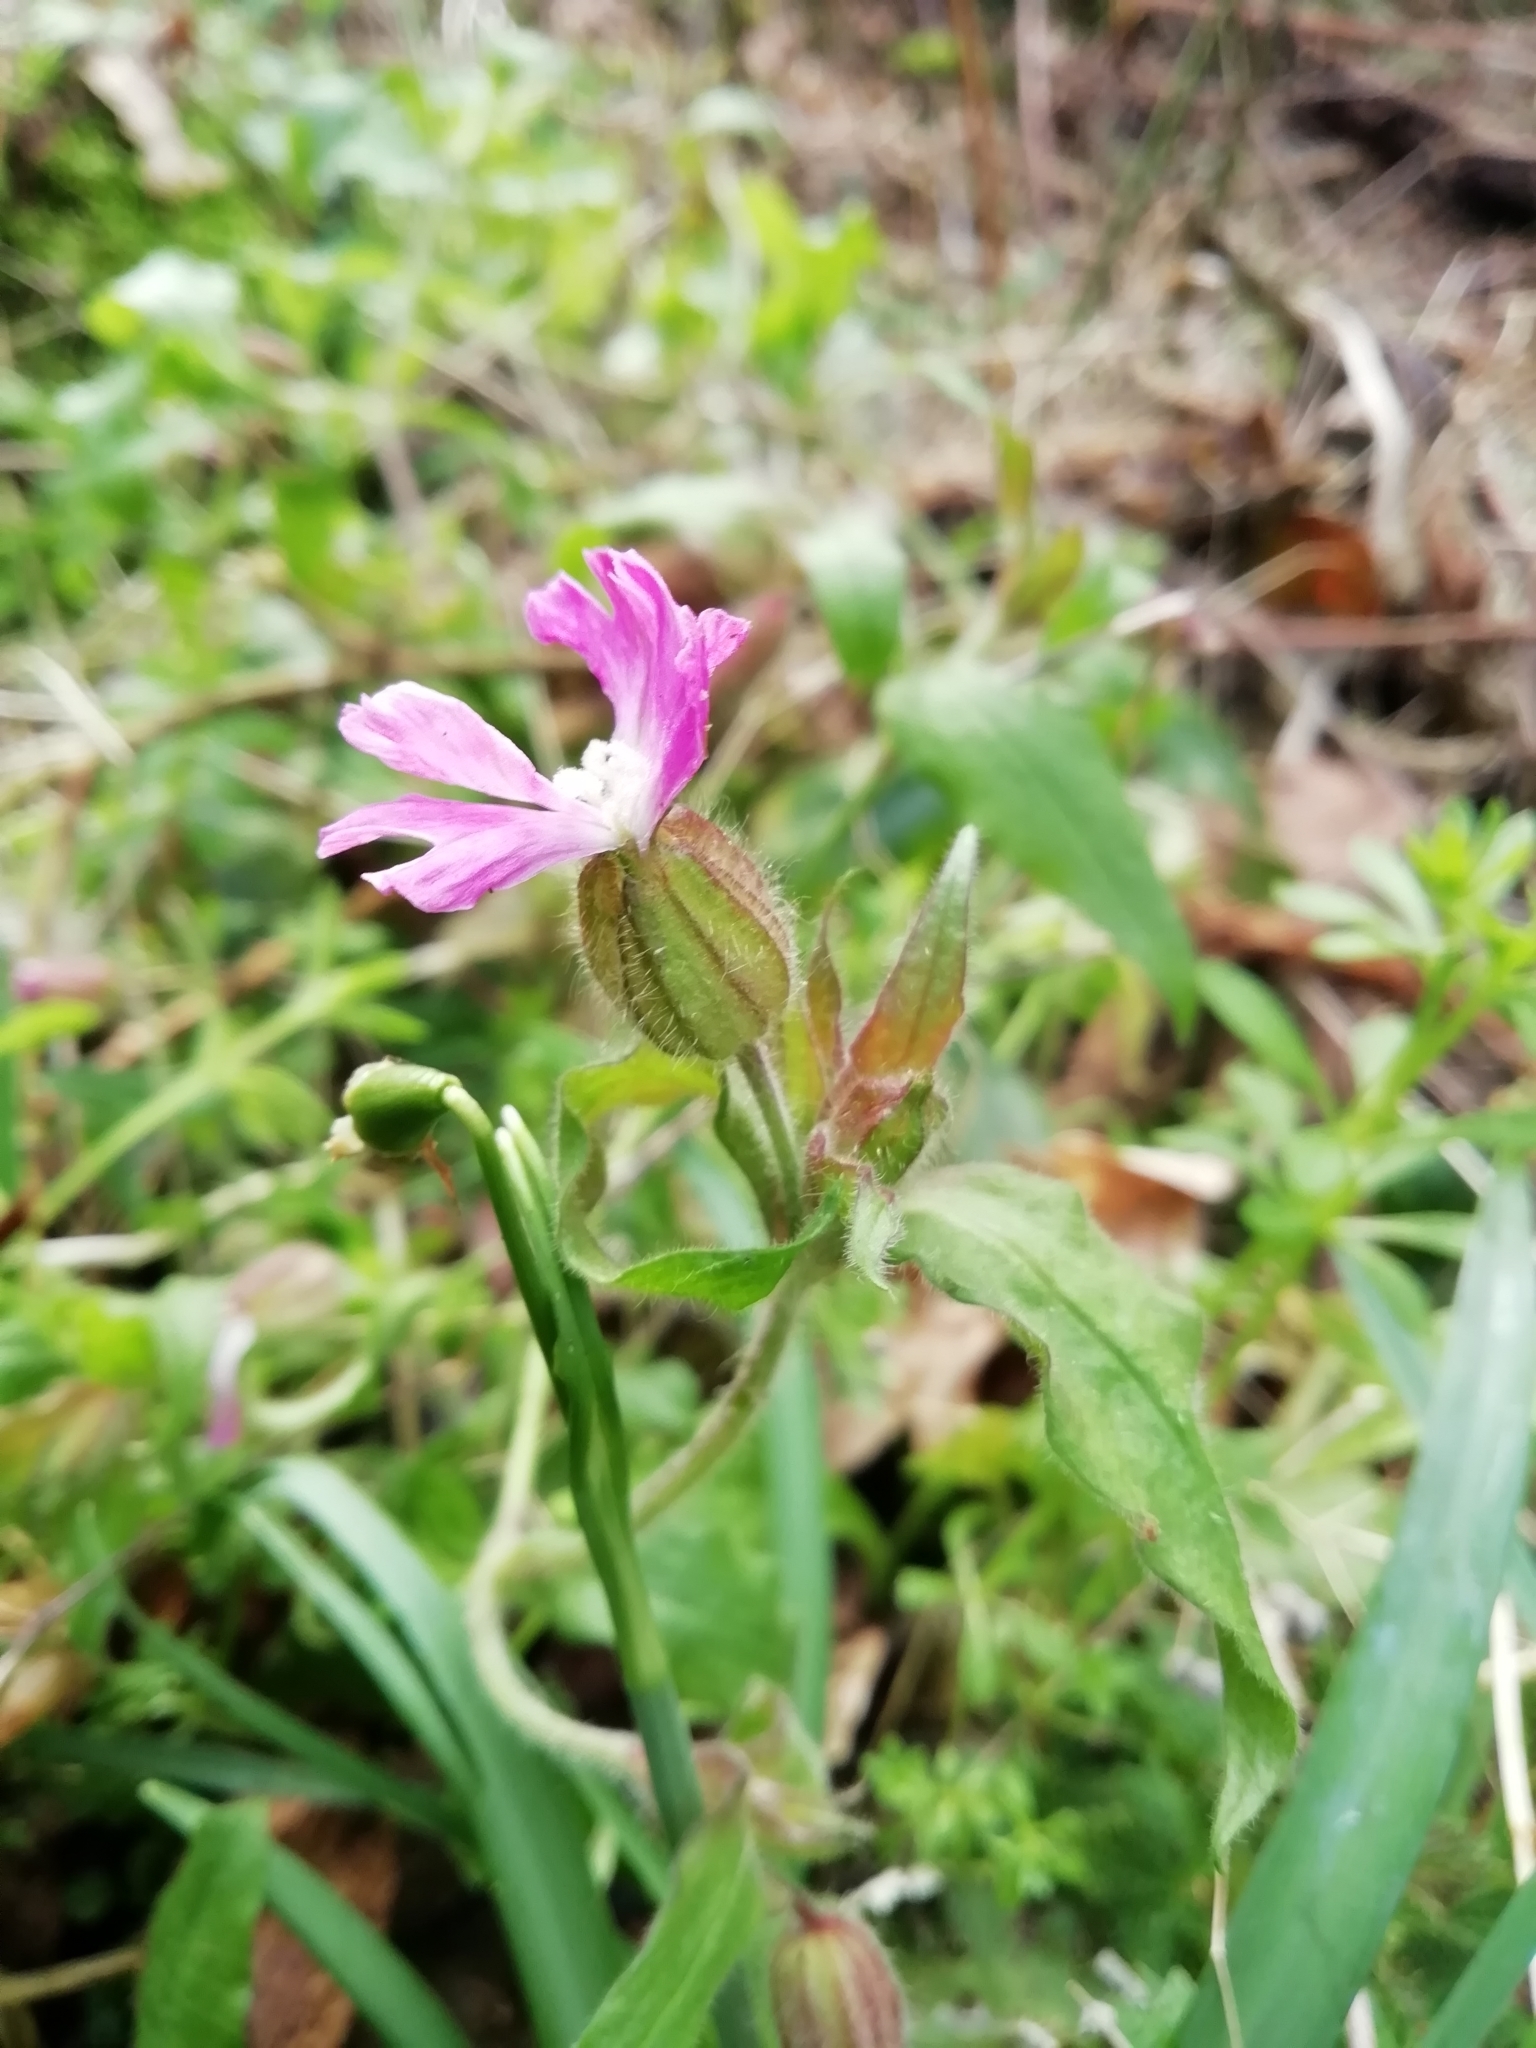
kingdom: Plantae
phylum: Tracheophyta
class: Magnoliopsida
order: Caryophyllales
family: Caryophyllaceae
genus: Silene
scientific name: Silene dioica
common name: Red campion
